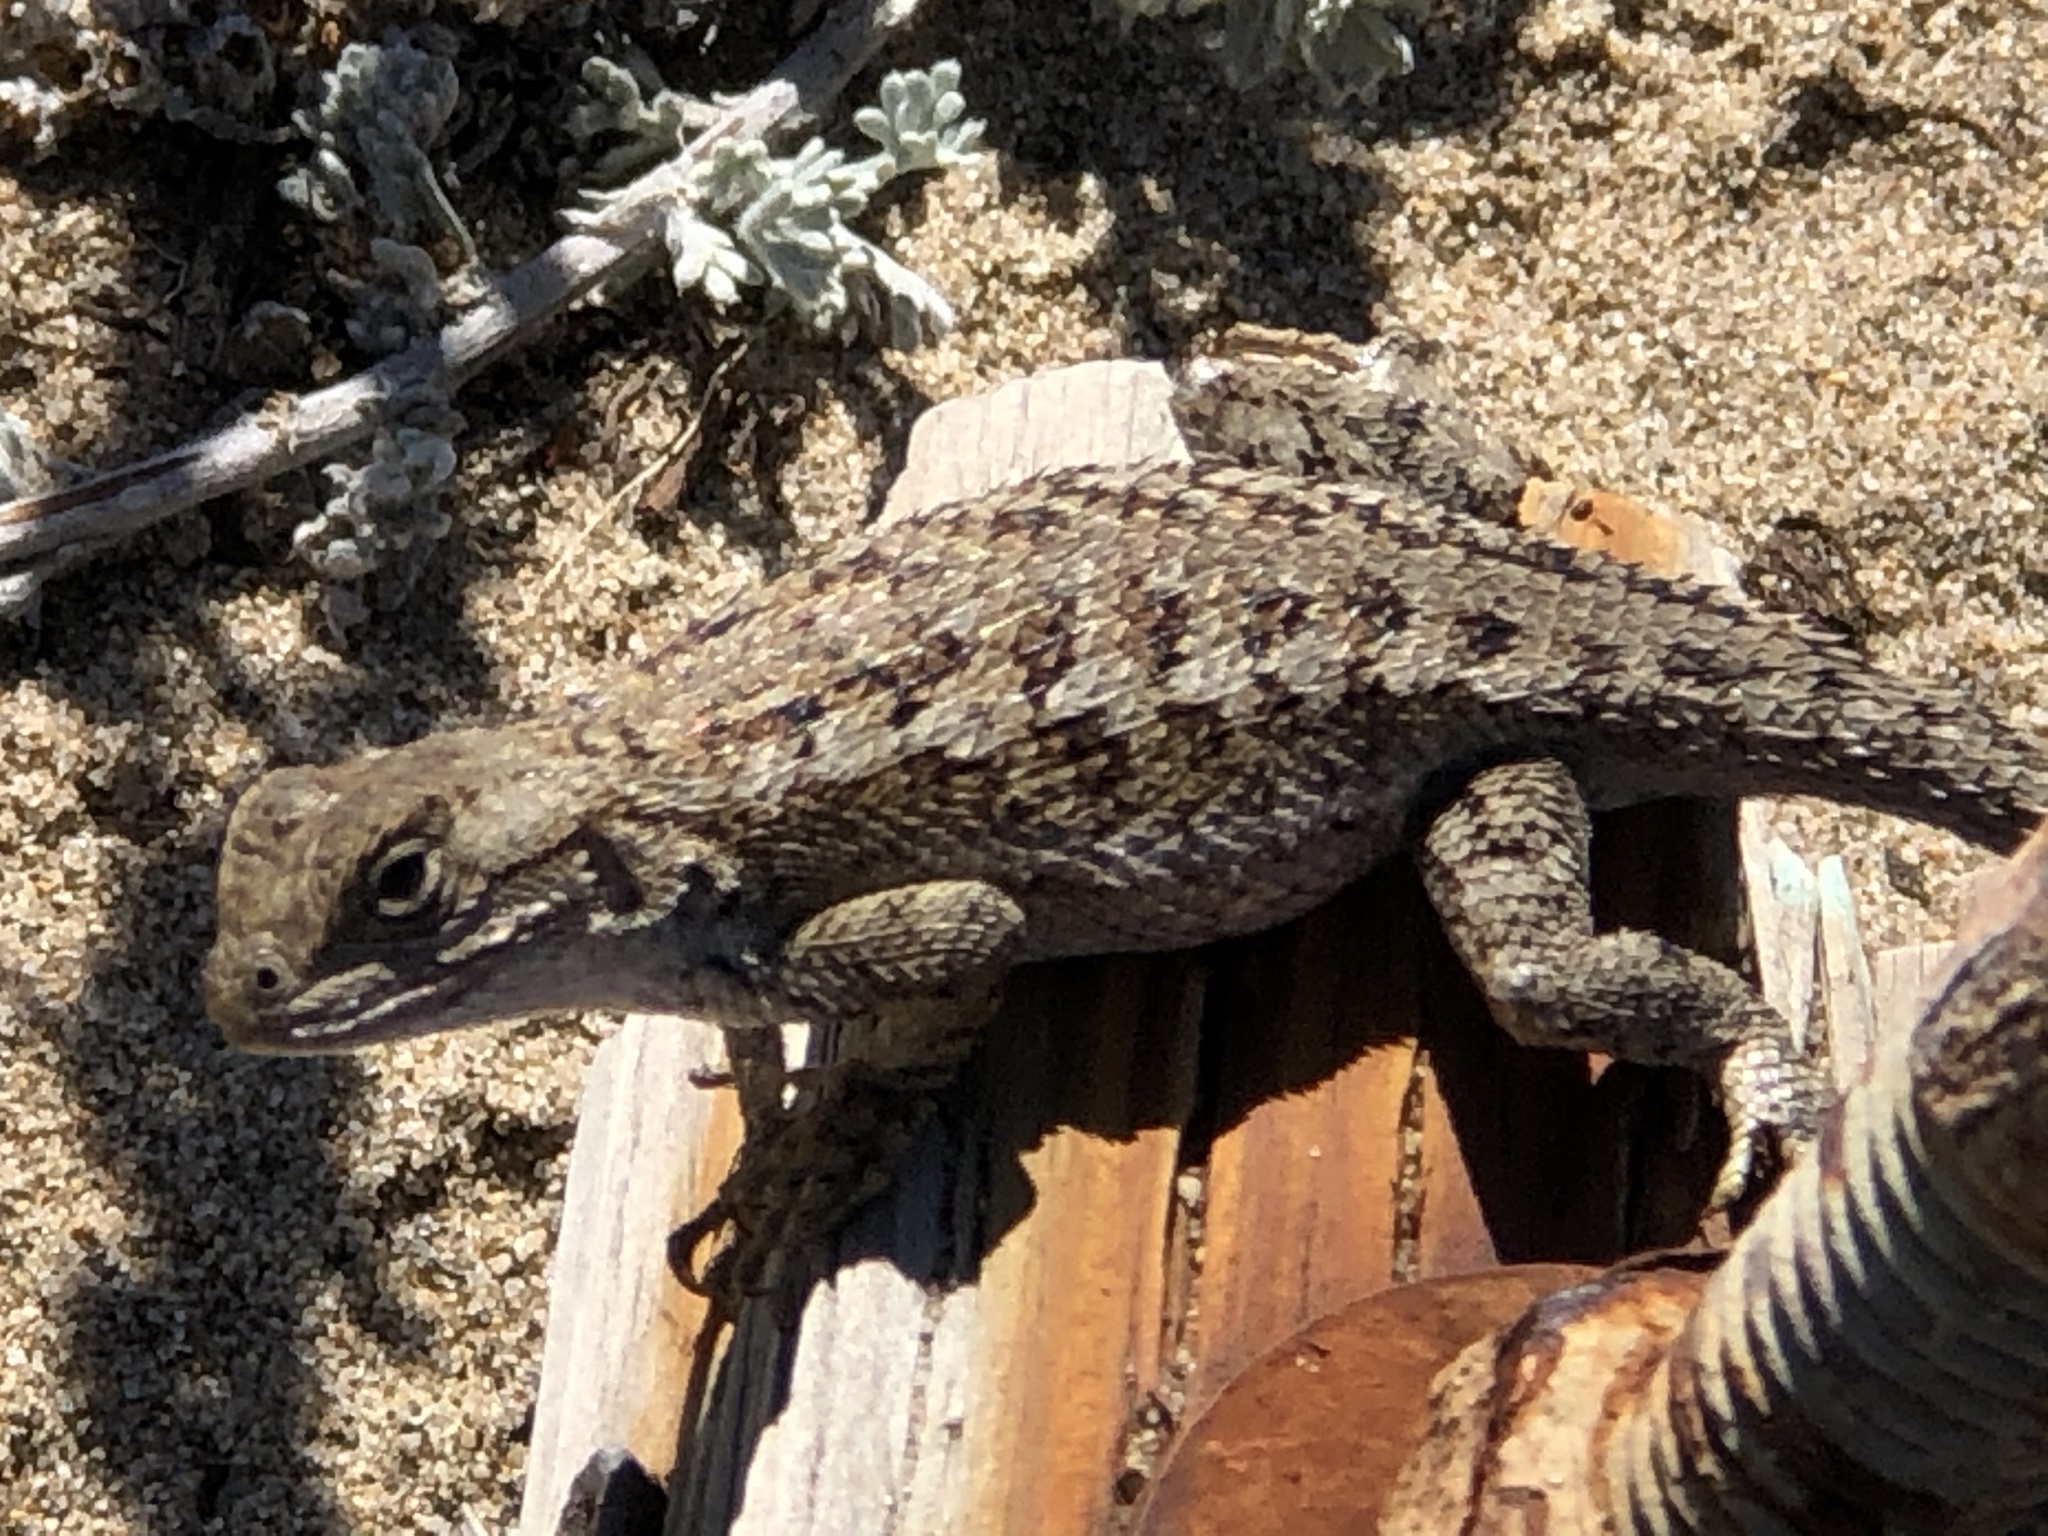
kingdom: Animalia
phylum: Chordata
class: Squamata
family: Phrynosomatidae
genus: Sceloporus
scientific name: Sceloporus occidentalis
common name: Western fence lizard
